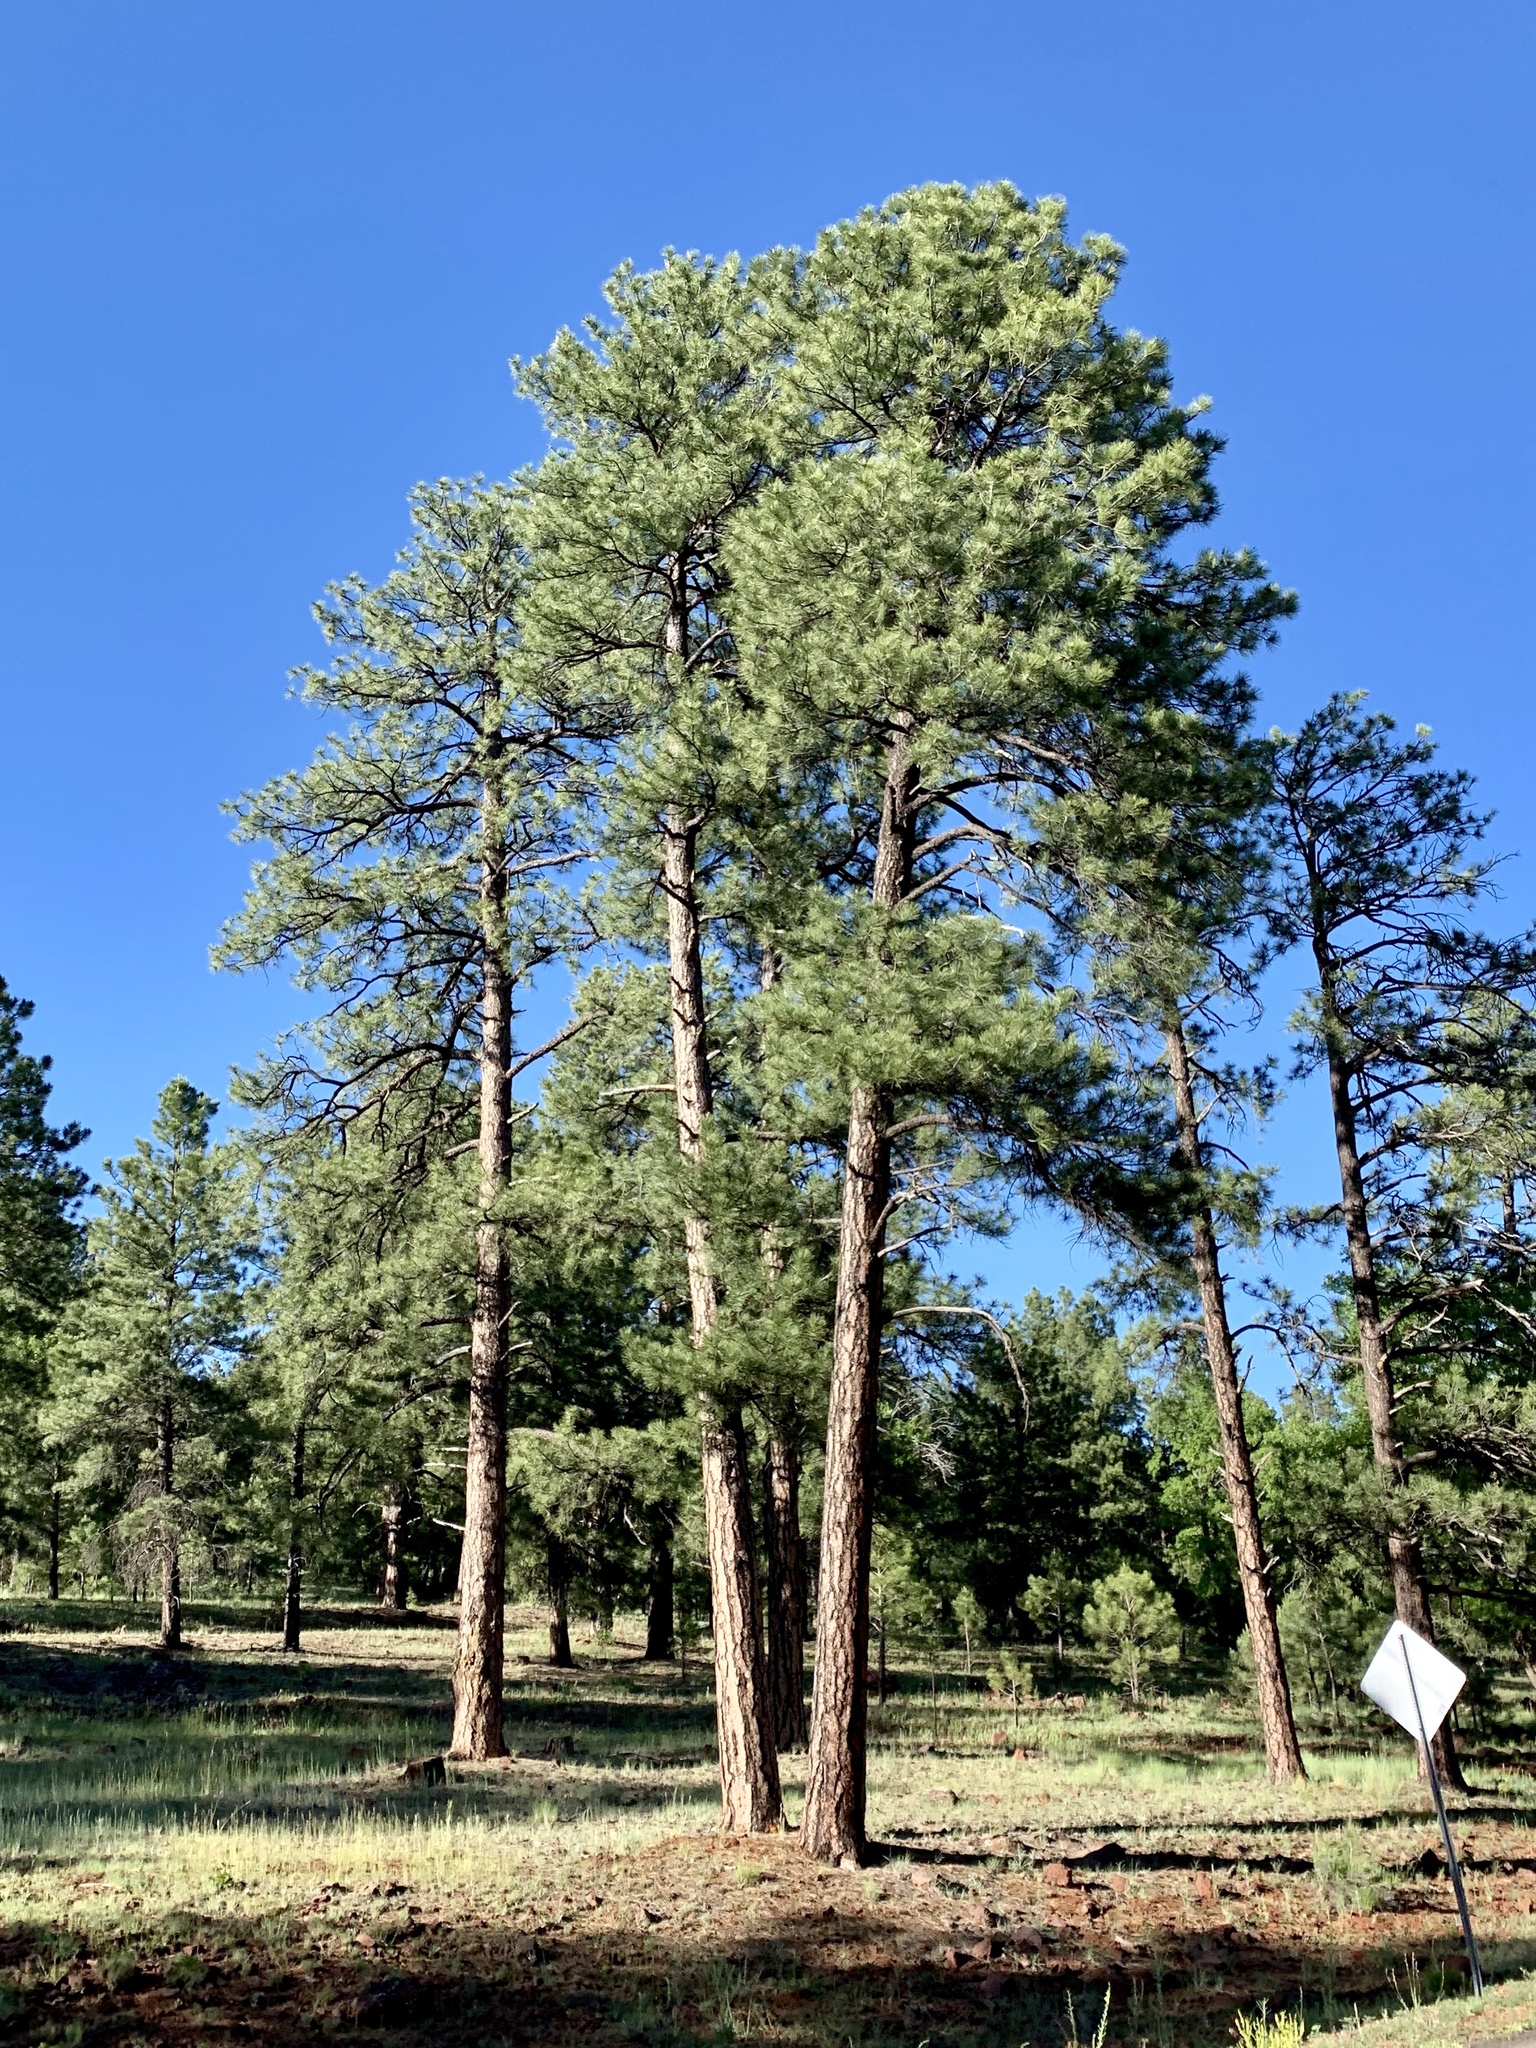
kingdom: Plantae
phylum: Tracheophyta
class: Pinopsida
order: Pinales
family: Pinaceae
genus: Pinus
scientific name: Pinus ponderosa
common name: Western yellow-pine
